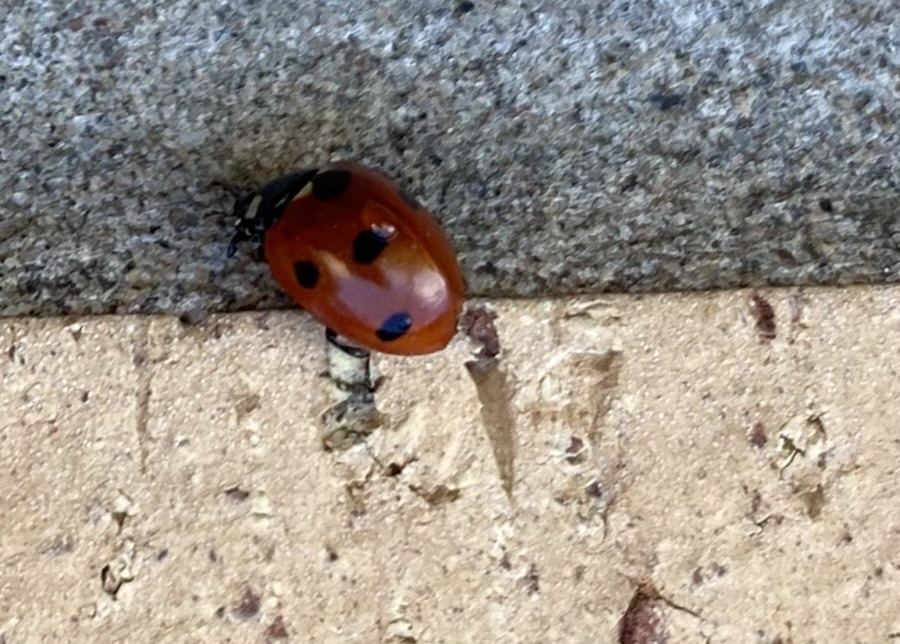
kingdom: Animalia
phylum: Arthropoda
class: Insecta
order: Coleoptera
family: Coccinellidae
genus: Coccinella
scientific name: Coccinella septempunctata
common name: Sevenspotted lady beetle
